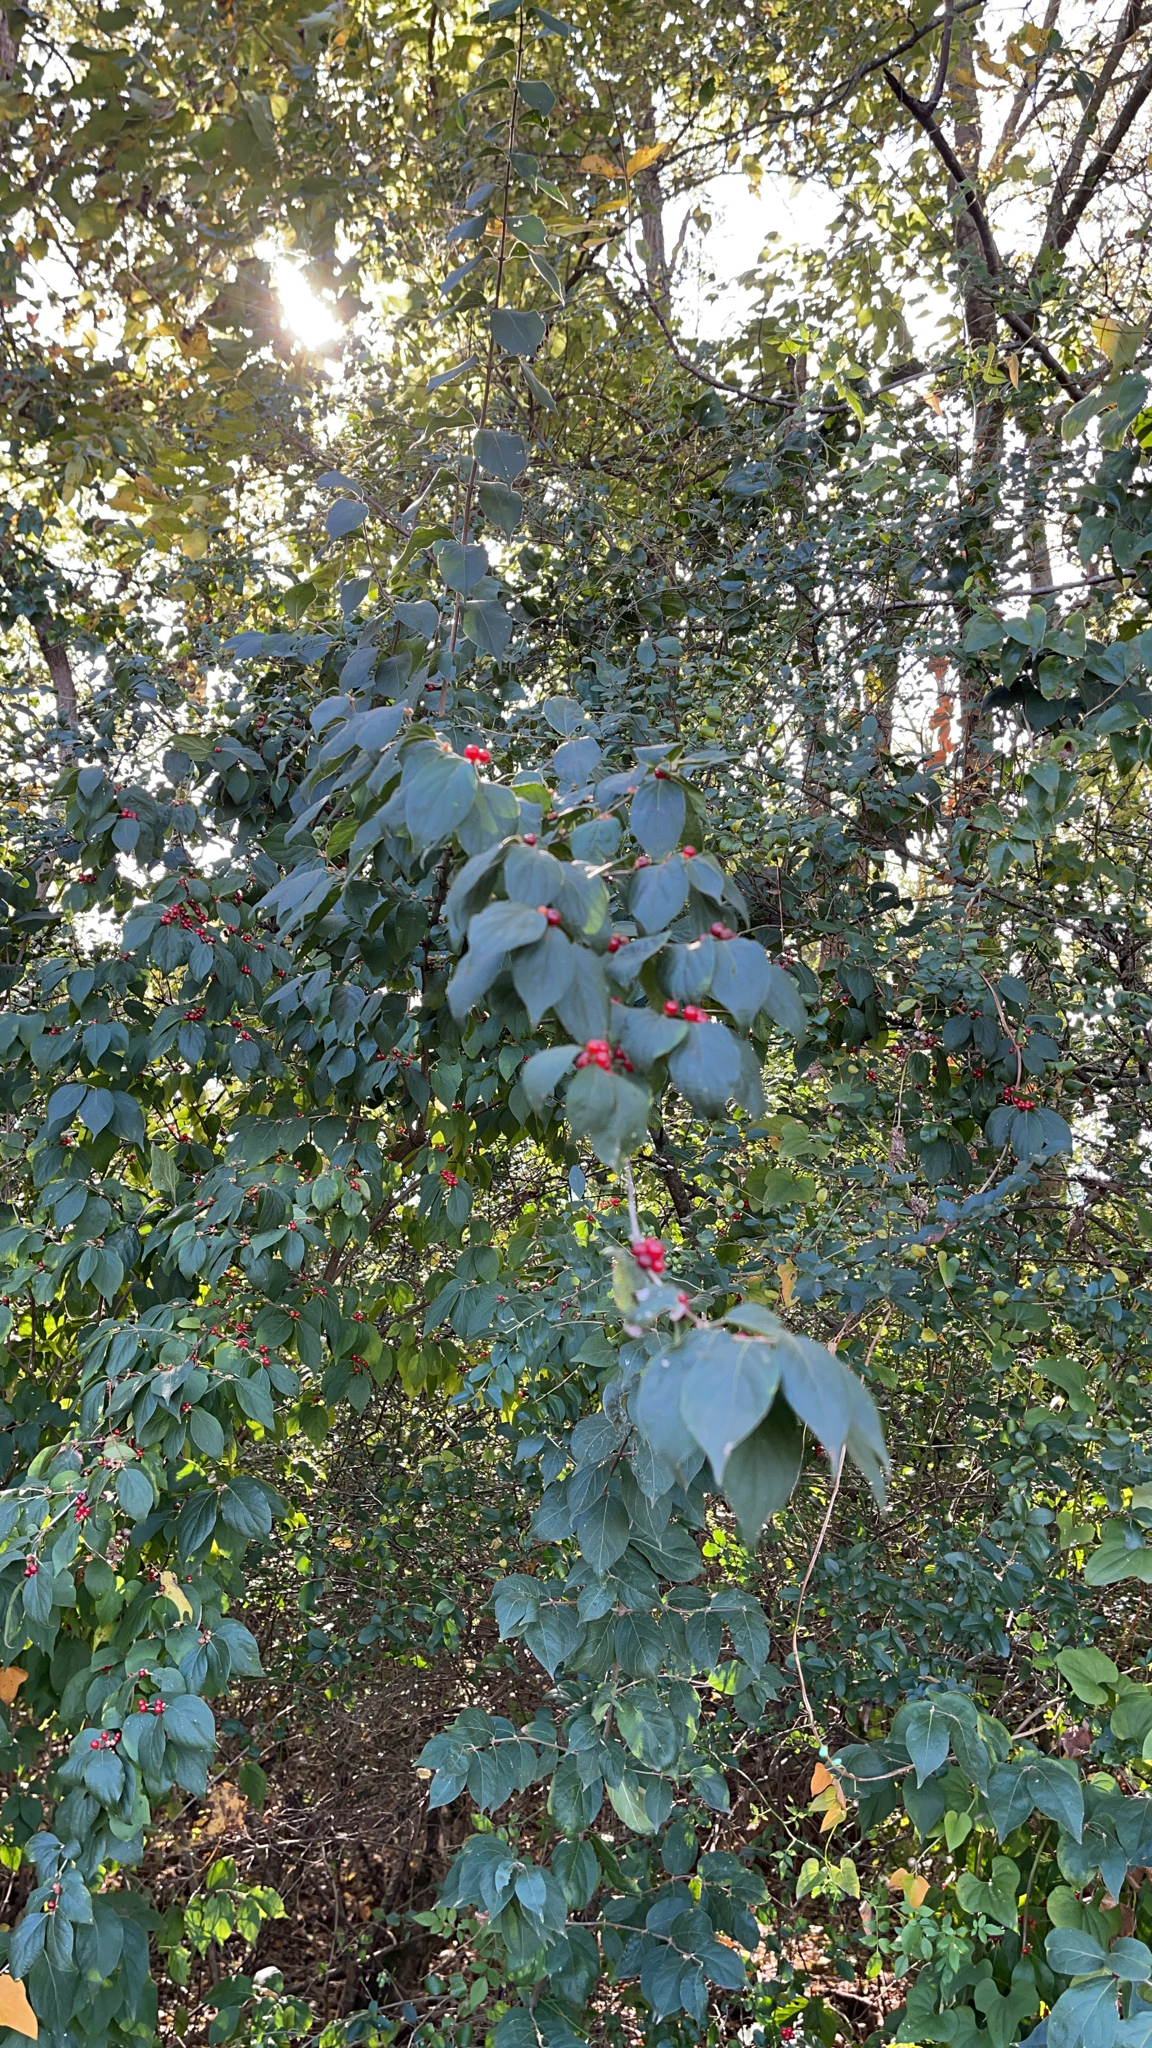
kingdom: Plantae
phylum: Tracheophyta
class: Magnoliopsida
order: Dipsacales
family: Caprifoliaceae
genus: Lonicera
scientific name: Lonicera maackii
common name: Amur honeysuckle
